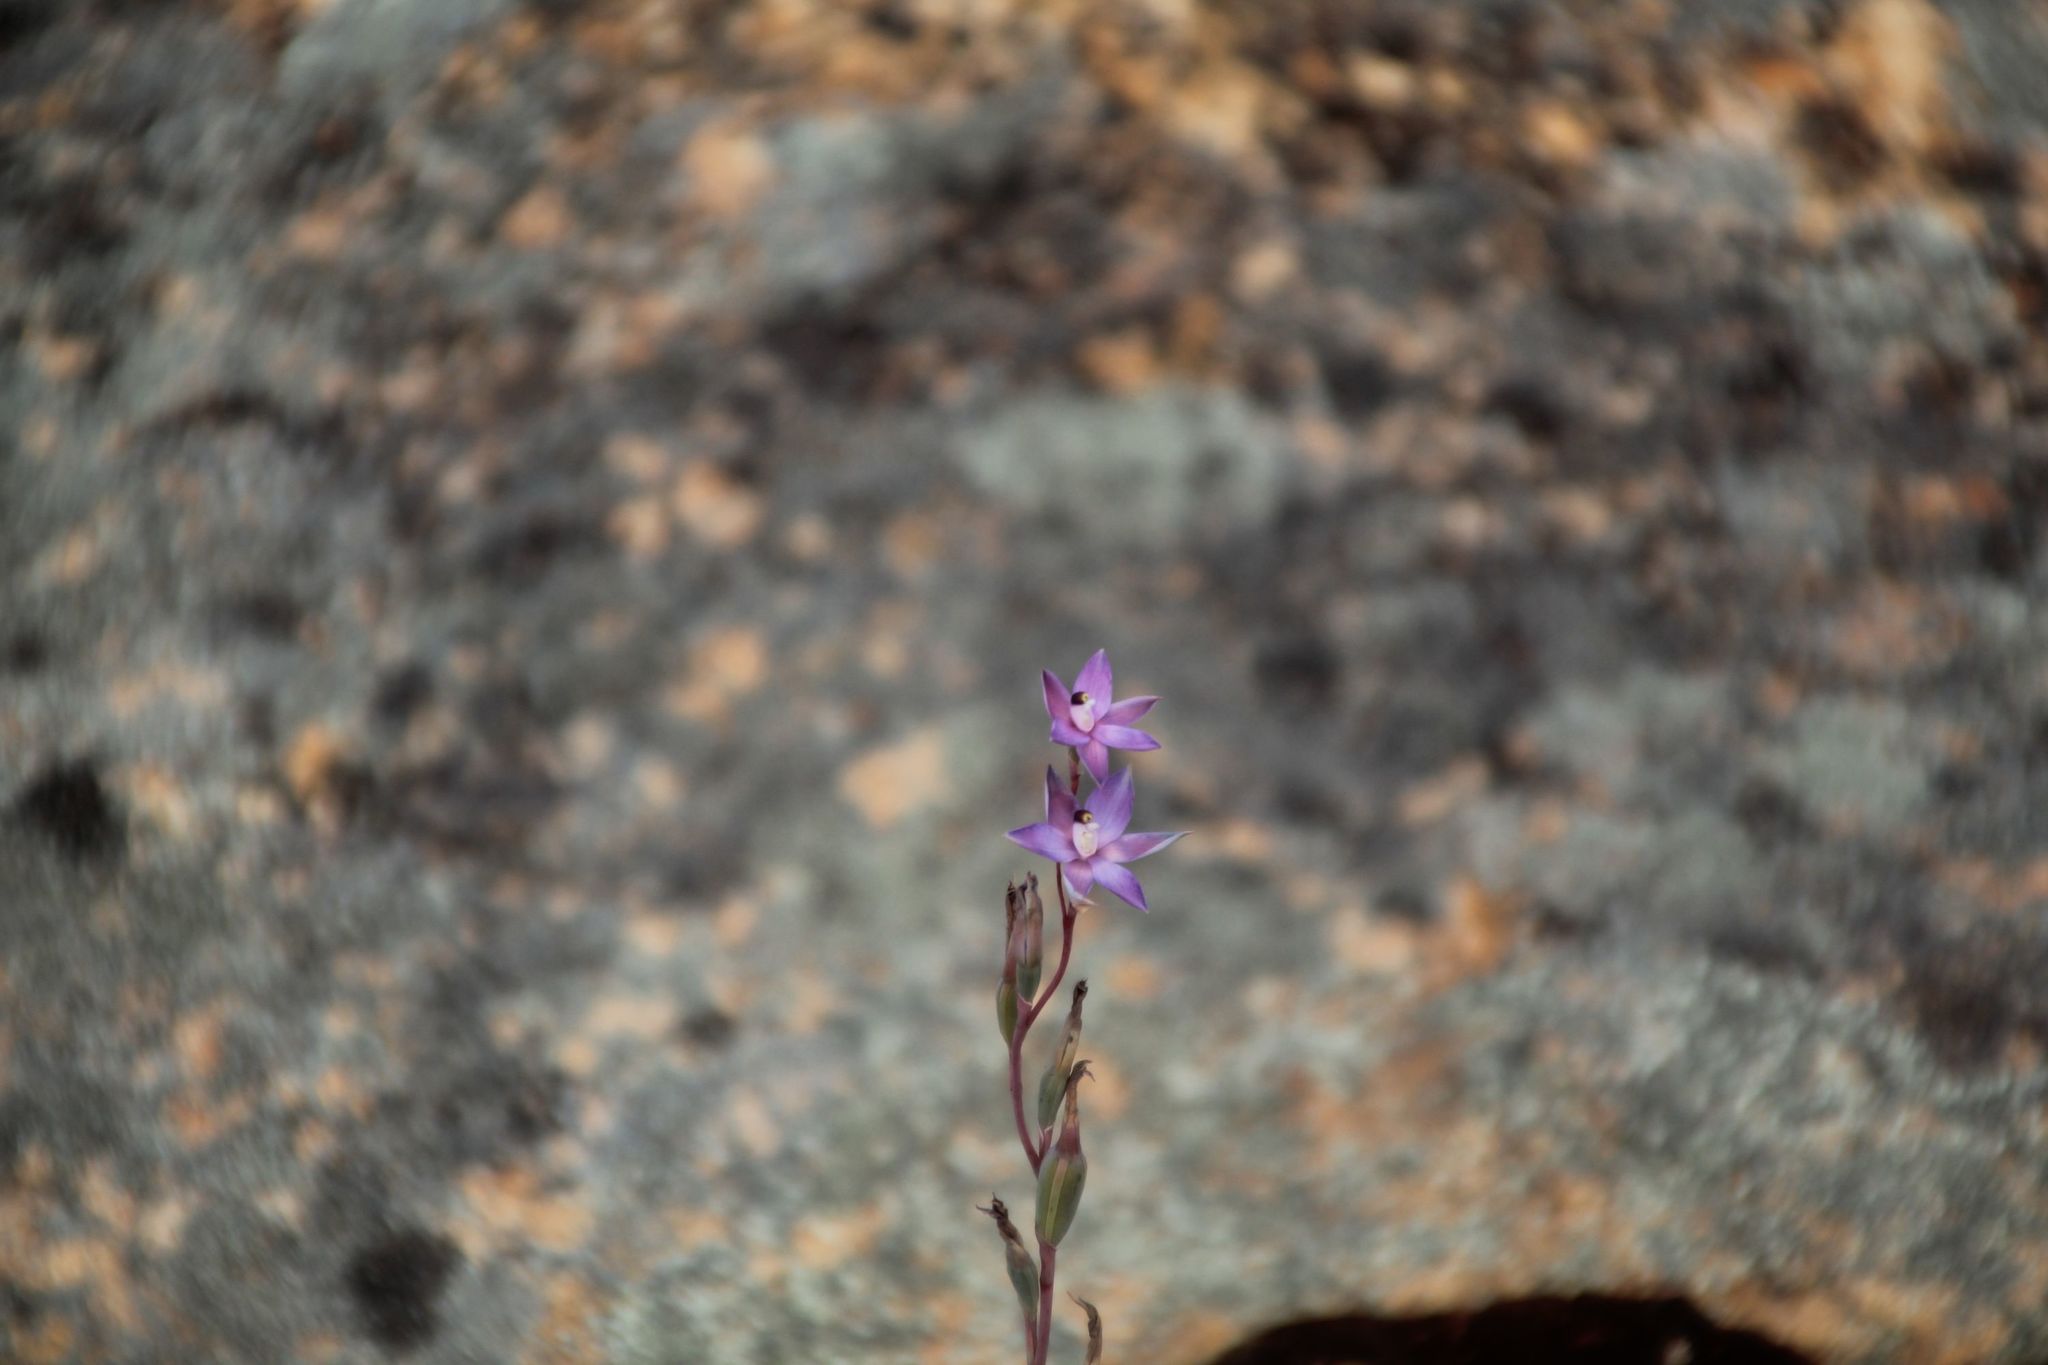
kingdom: Plantae
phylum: Tracheophyta
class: Liliopsida
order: Asparagales
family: Orchidaceae
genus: Thelymitra
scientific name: Thelymitra petrophila
